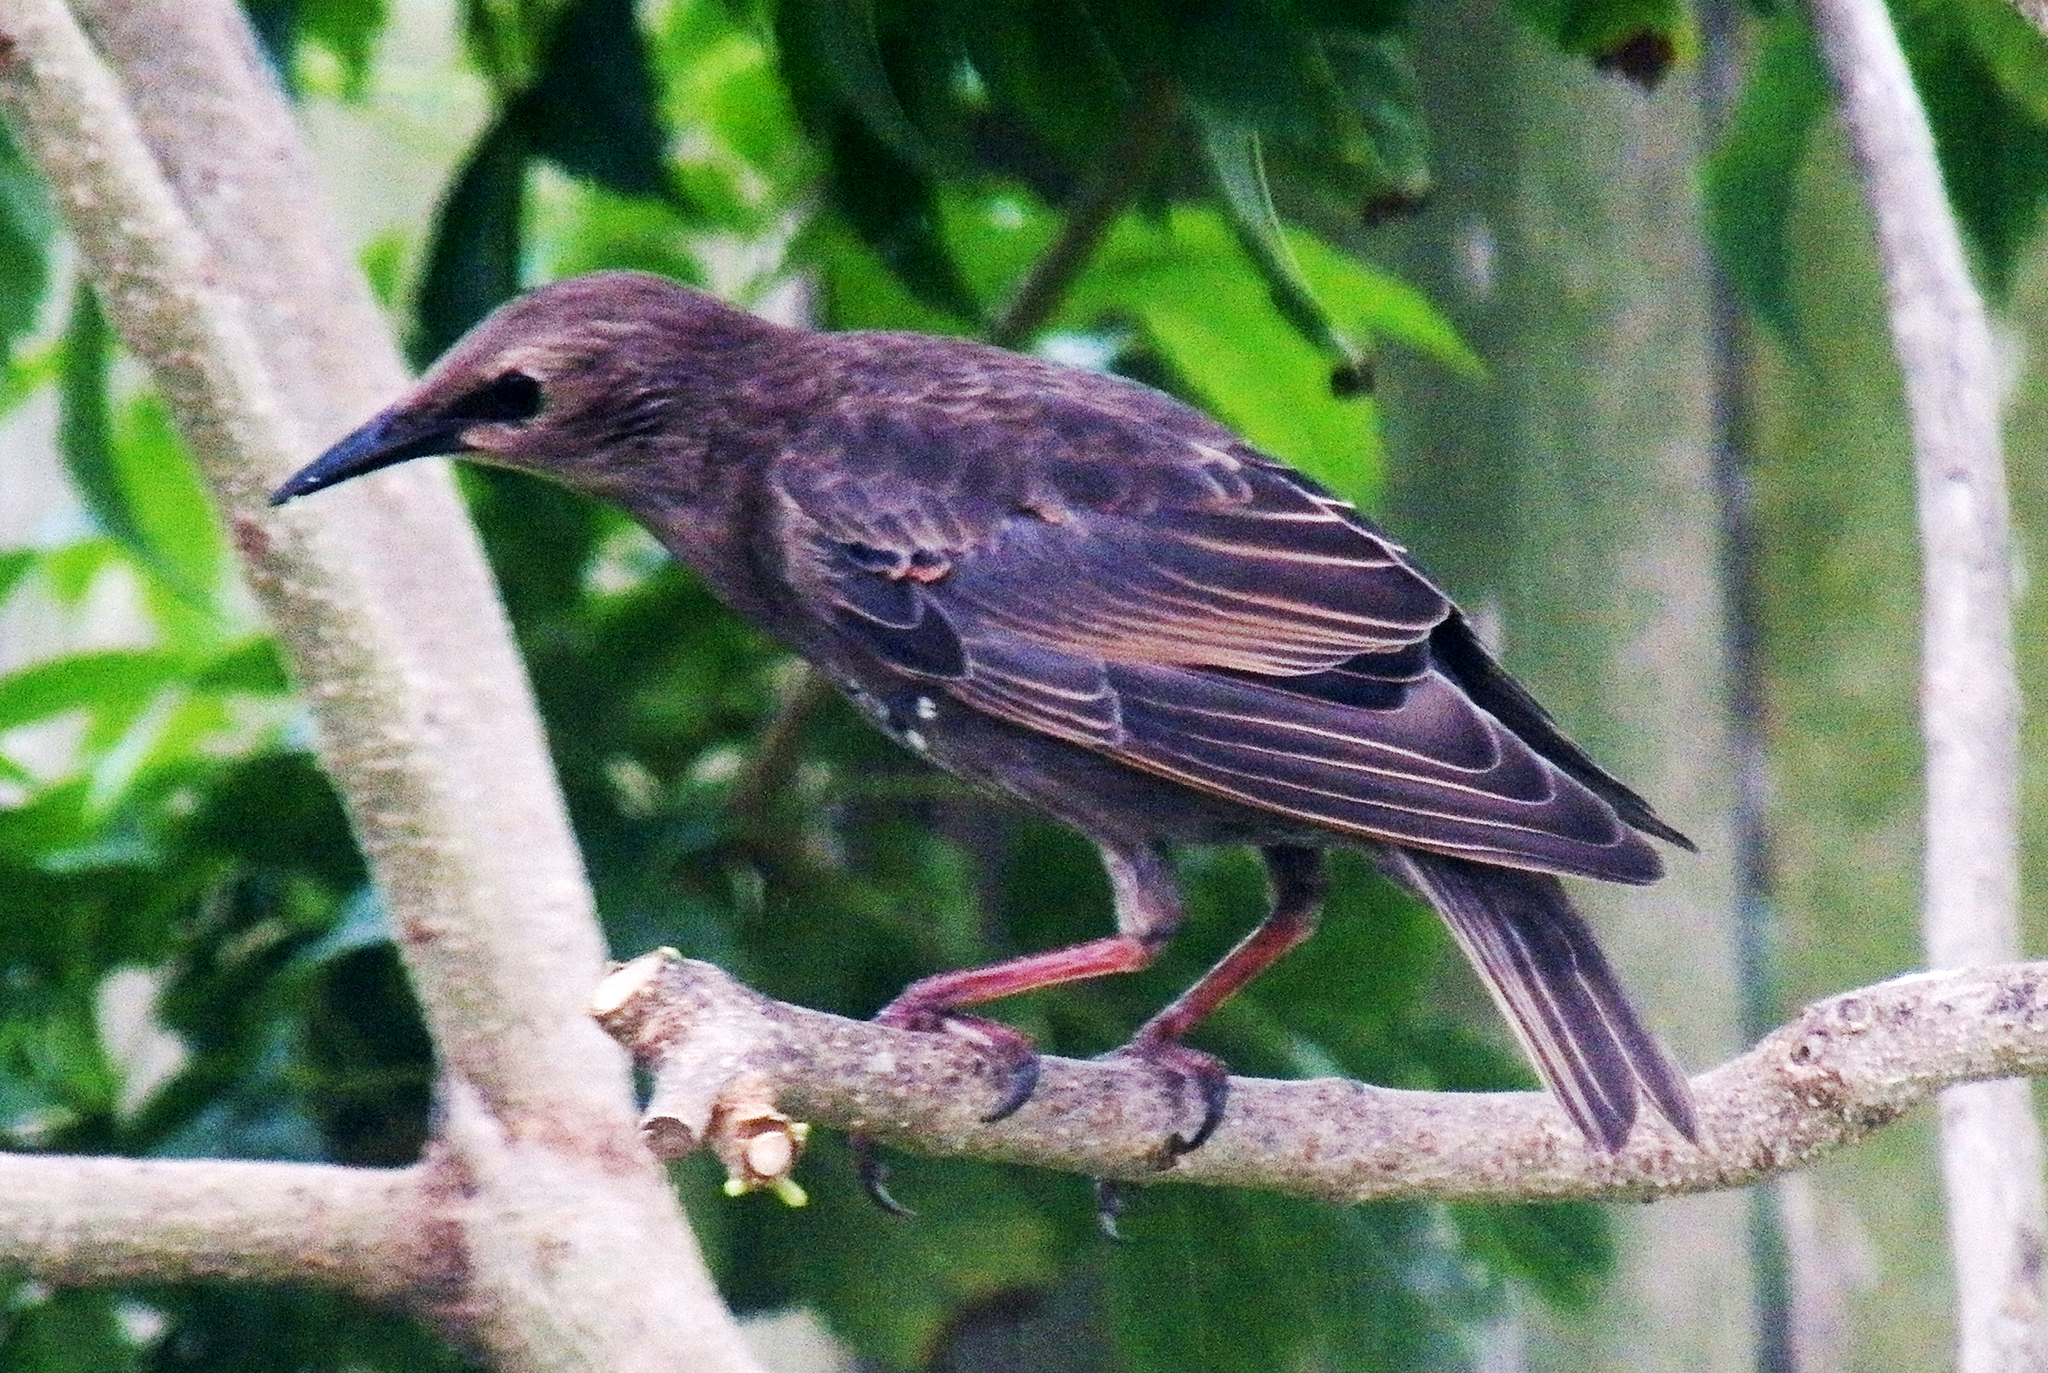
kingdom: Animalia
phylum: Chordata
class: Aves
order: Passeriformes
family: Sturnidae
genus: Sturnus
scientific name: Sturnus vulgaris
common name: Common starling
